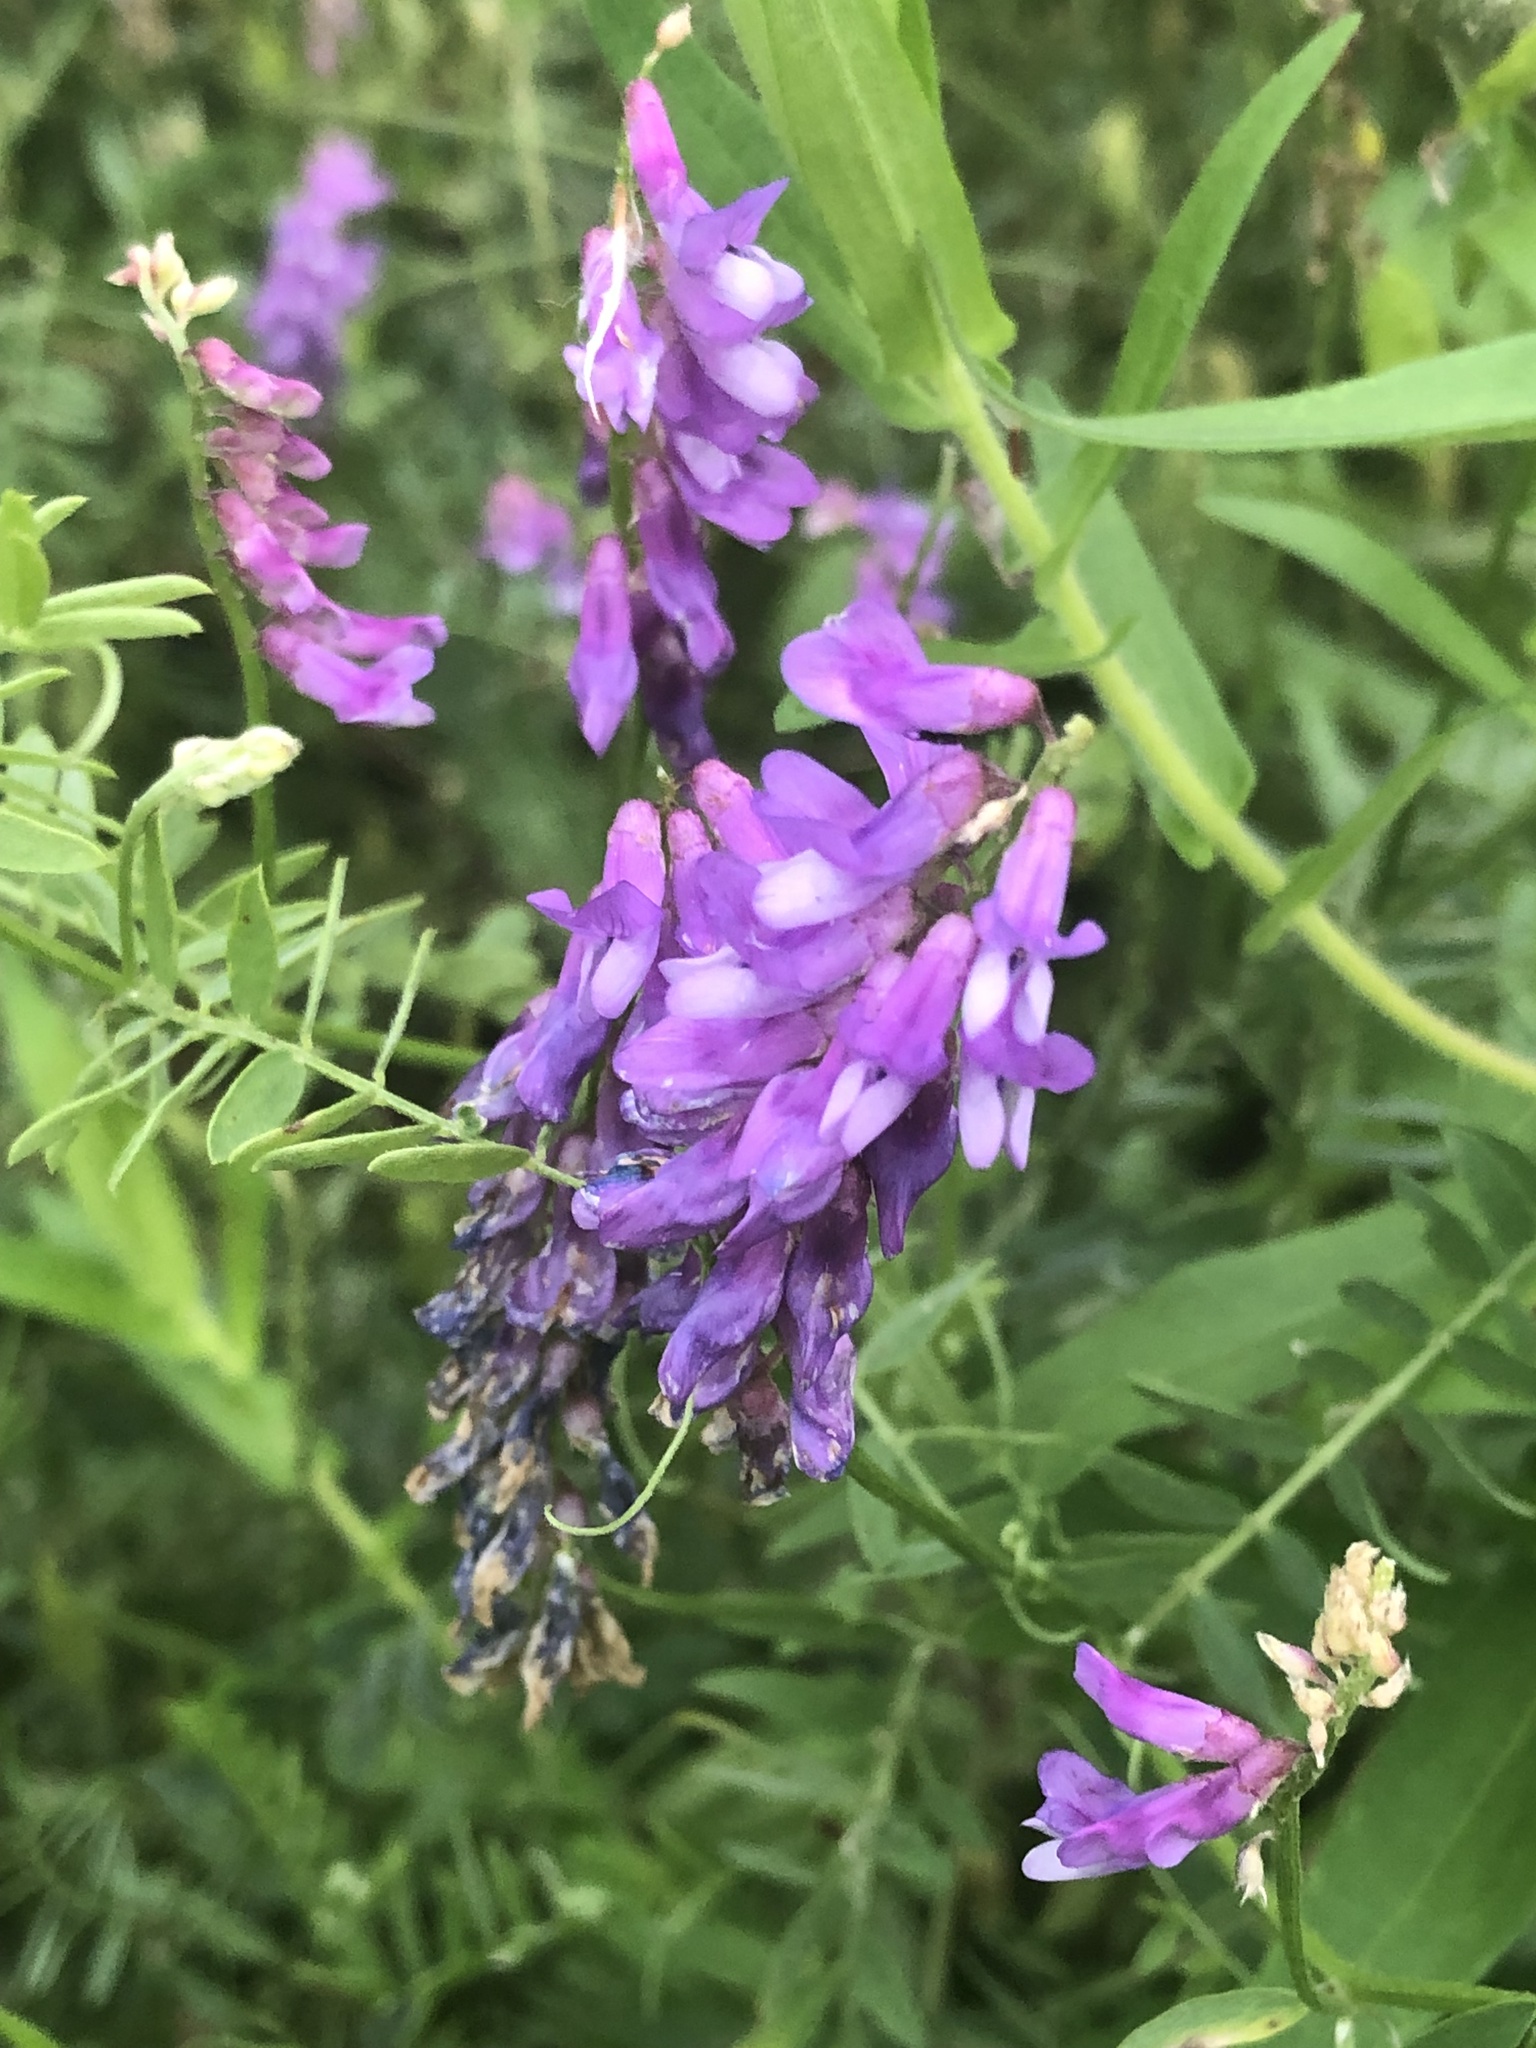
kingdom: Plantae
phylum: Tracheophyta
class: Magnoliopsida
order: Fabales
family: Fabaceae
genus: Vicia
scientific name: Vicia cracca
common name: Bird vetch
